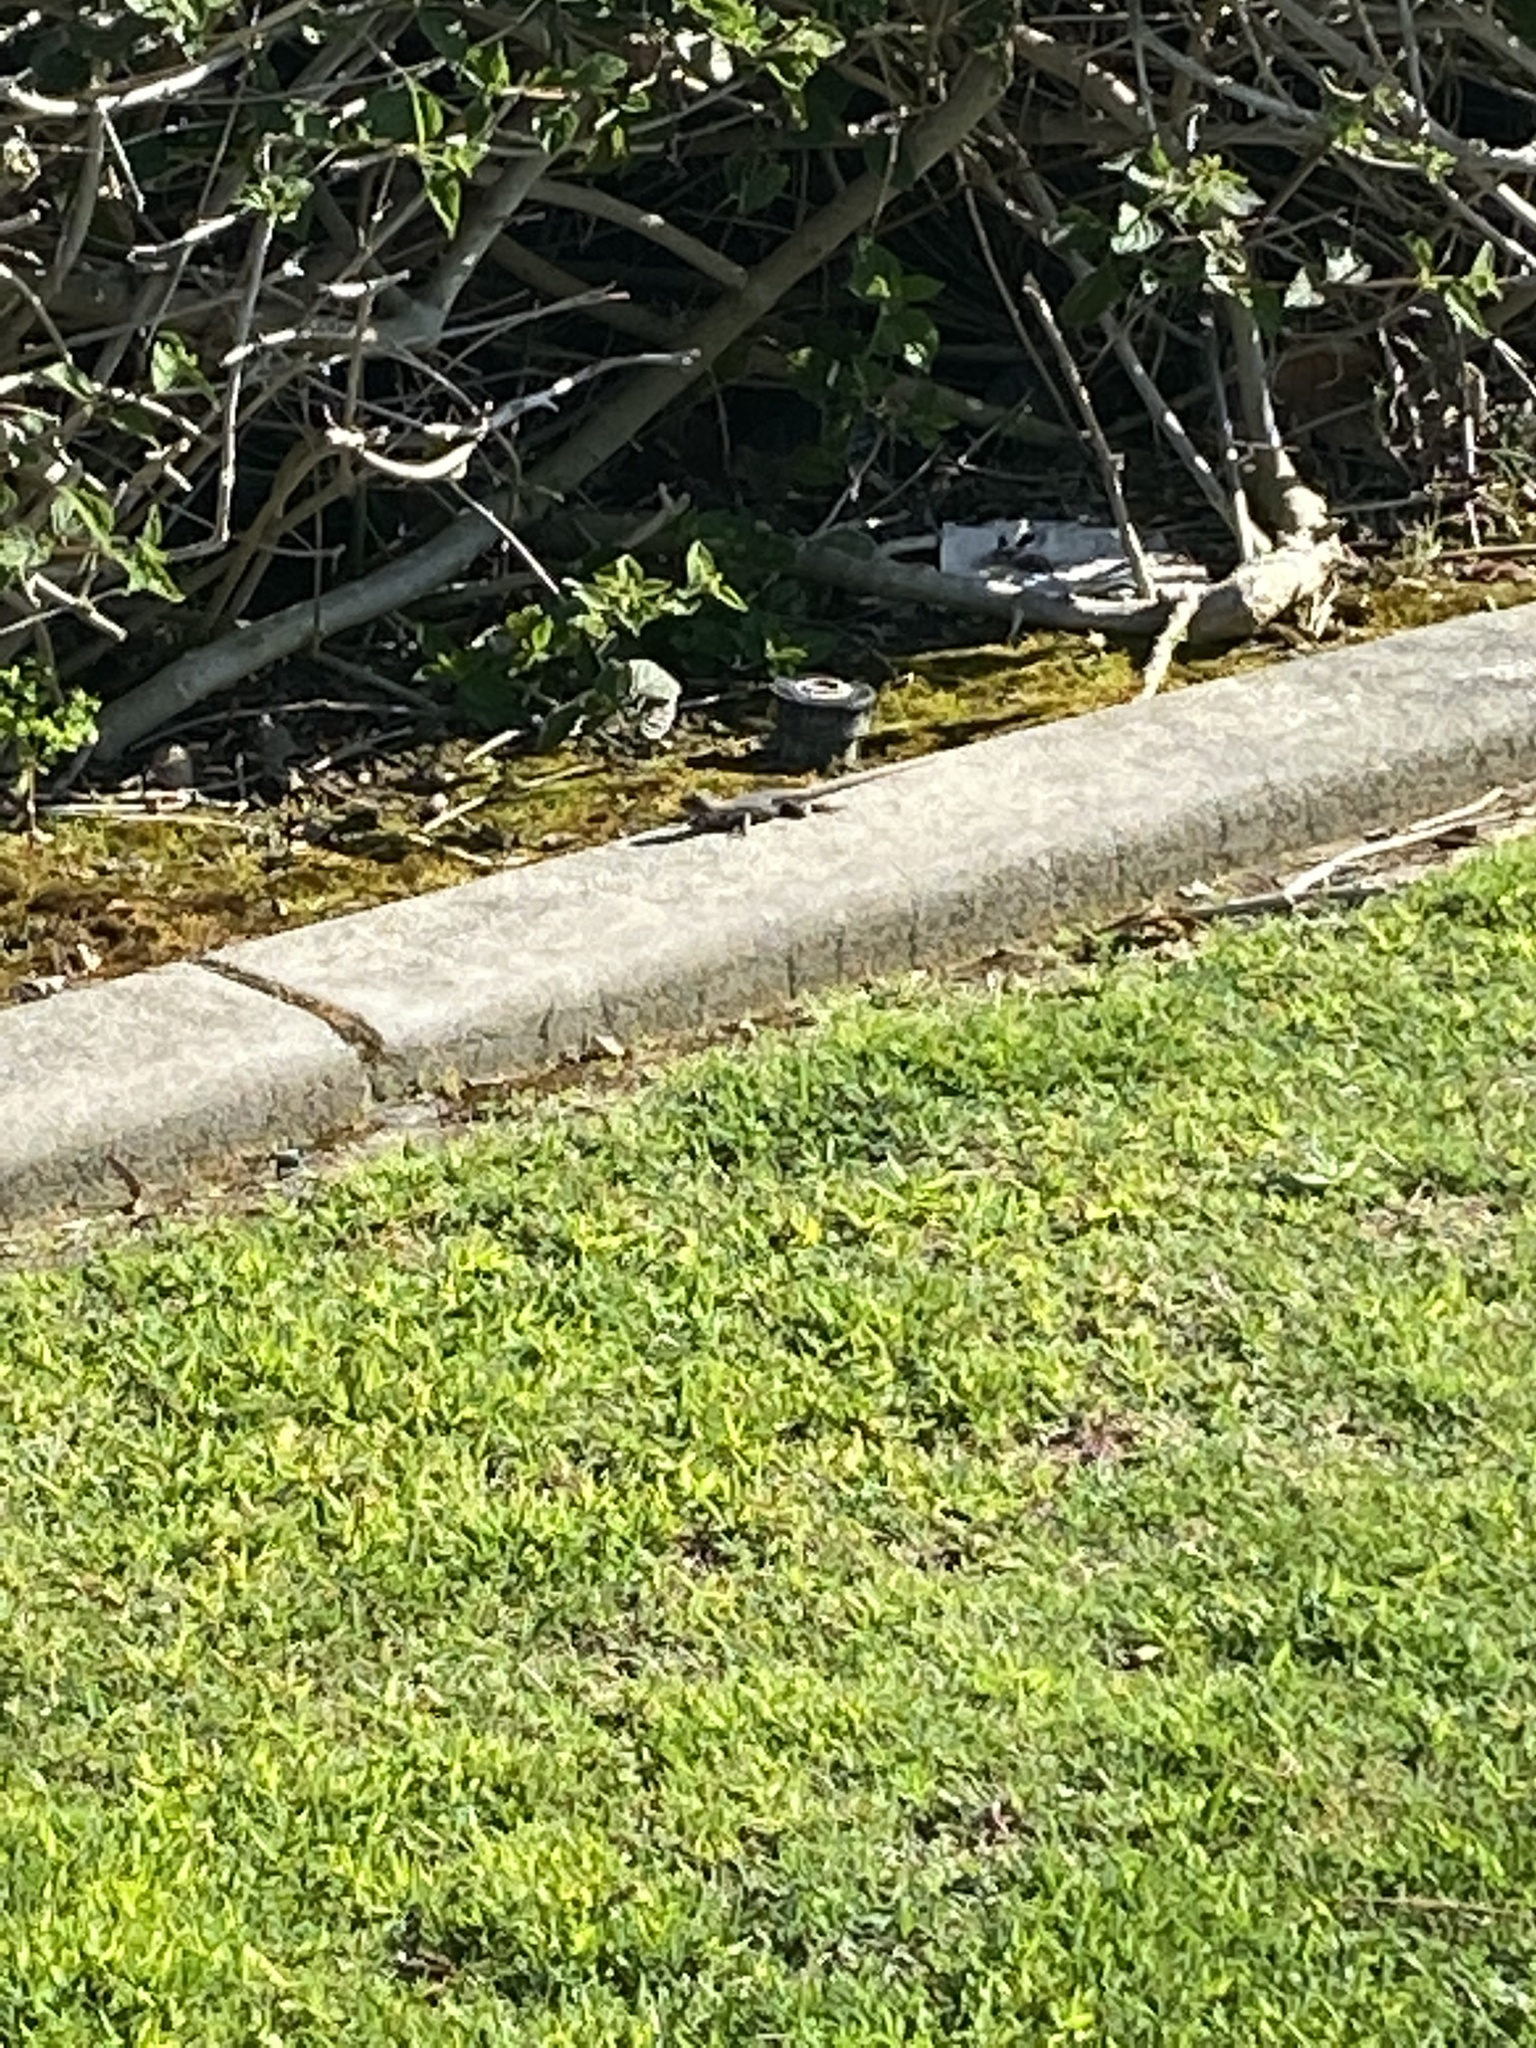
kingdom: Animalia
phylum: Chordata
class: Squamata
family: Phrynosomatidae
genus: Sceloporus
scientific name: Sceloporus occidentalis
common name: Western fence lizard
